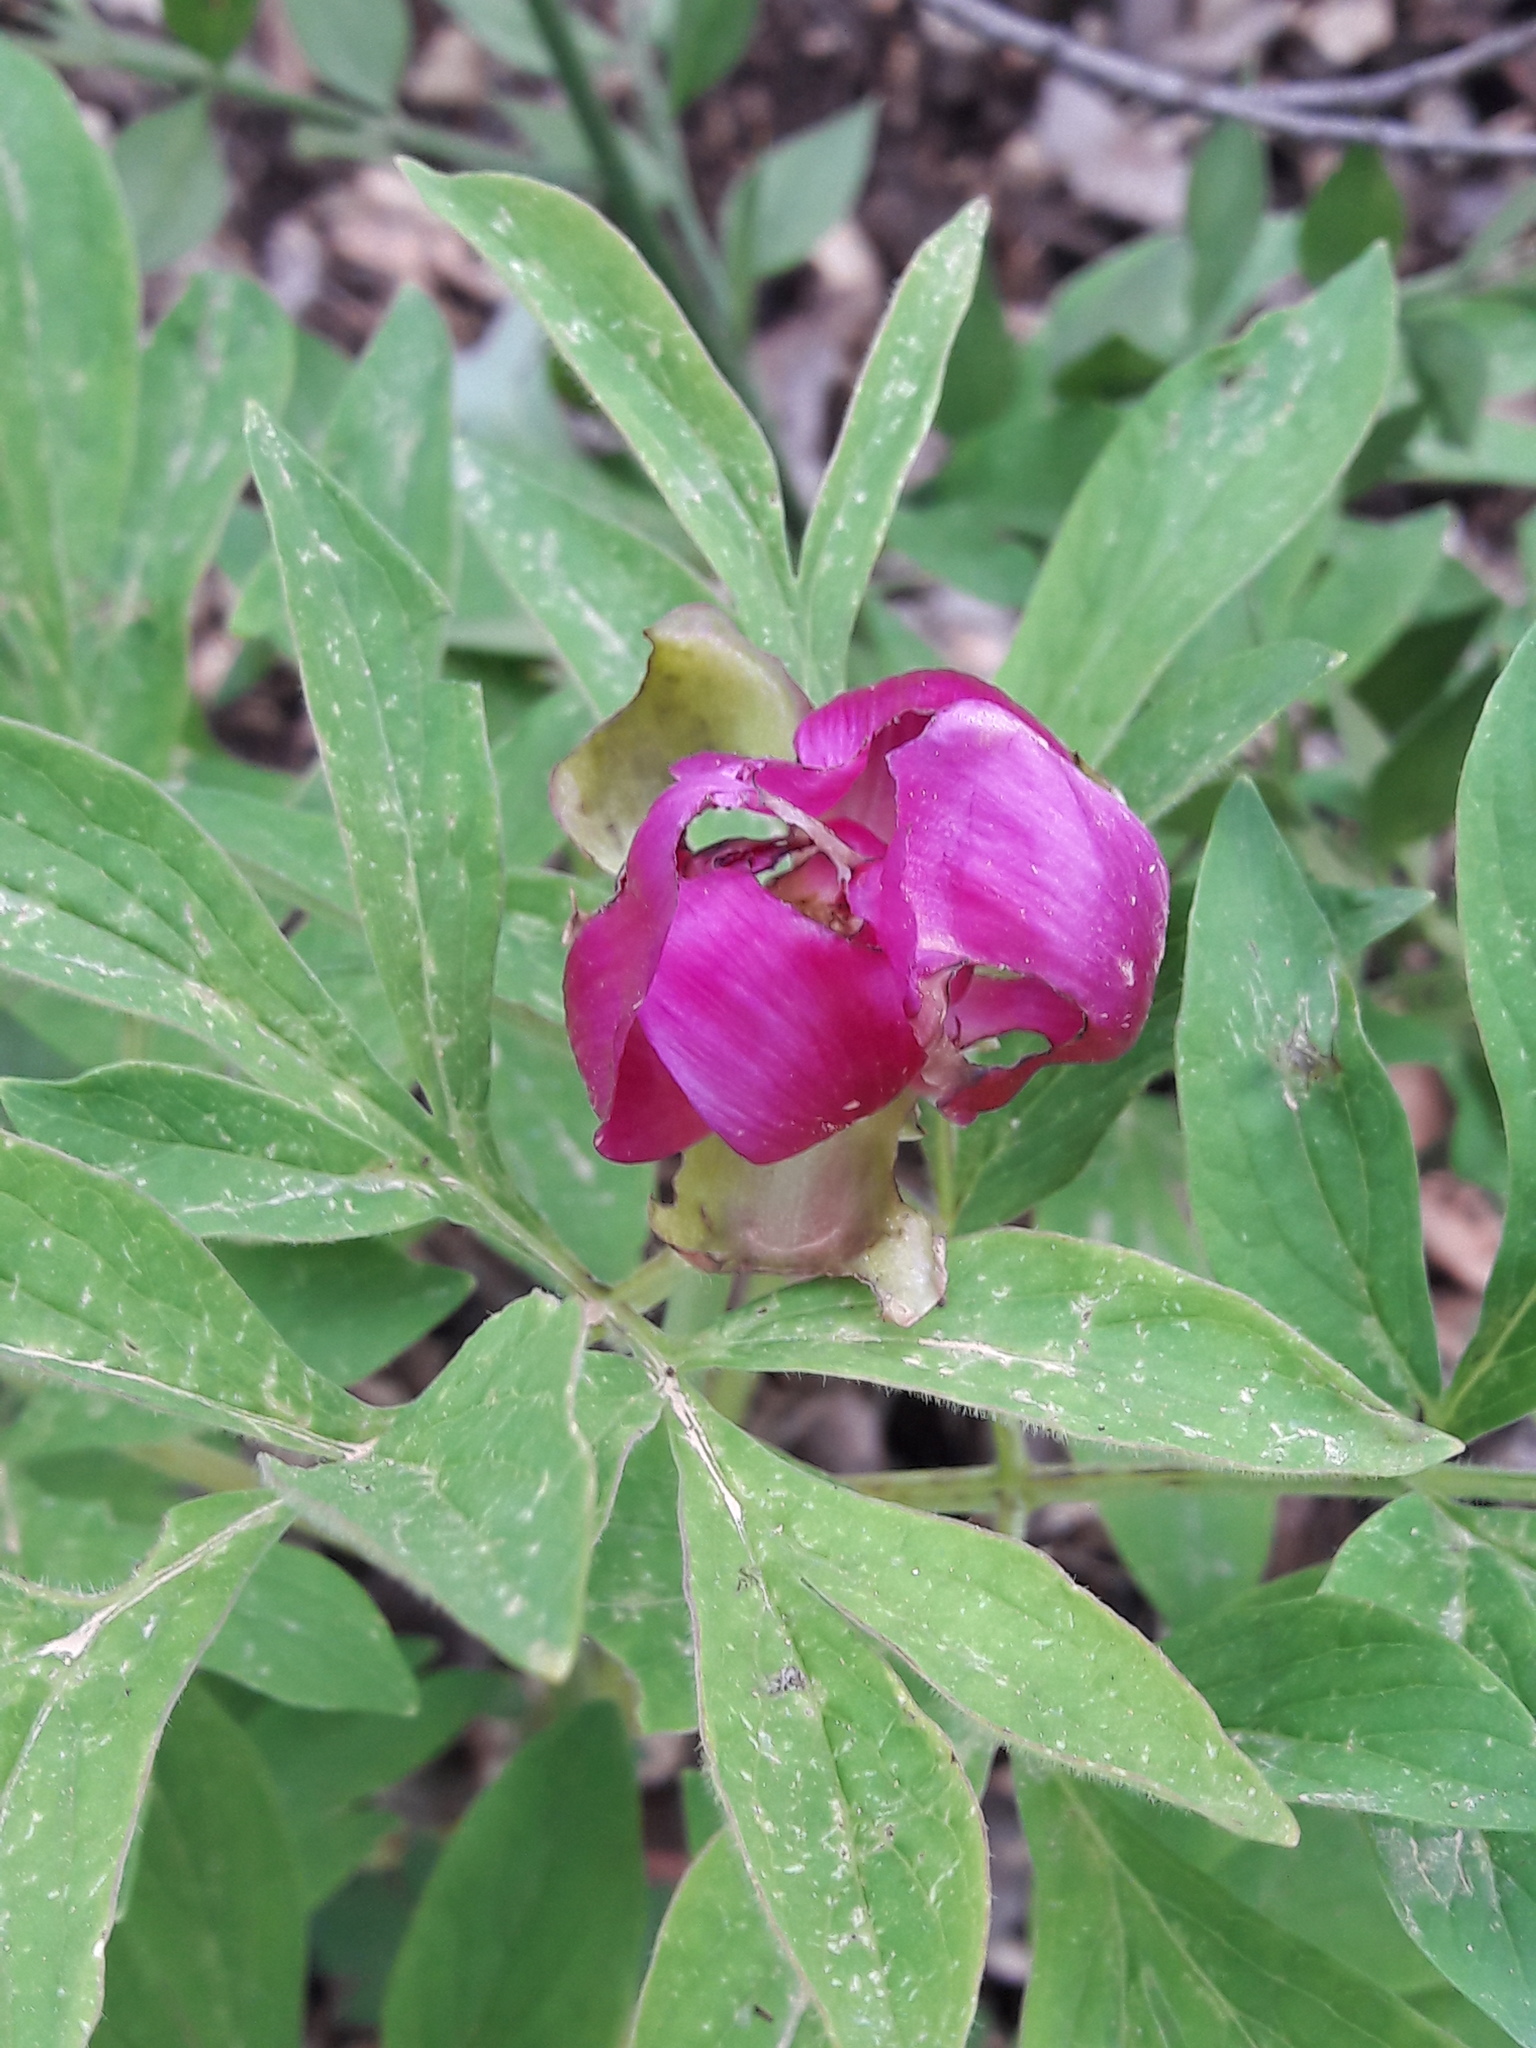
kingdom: Plantae
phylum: Tracheophyta
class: Magnoliopsida
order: Saxifragales
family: Paeoniaceae
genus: Paeonia
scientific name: Paeonia officinalis
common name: Common peony
